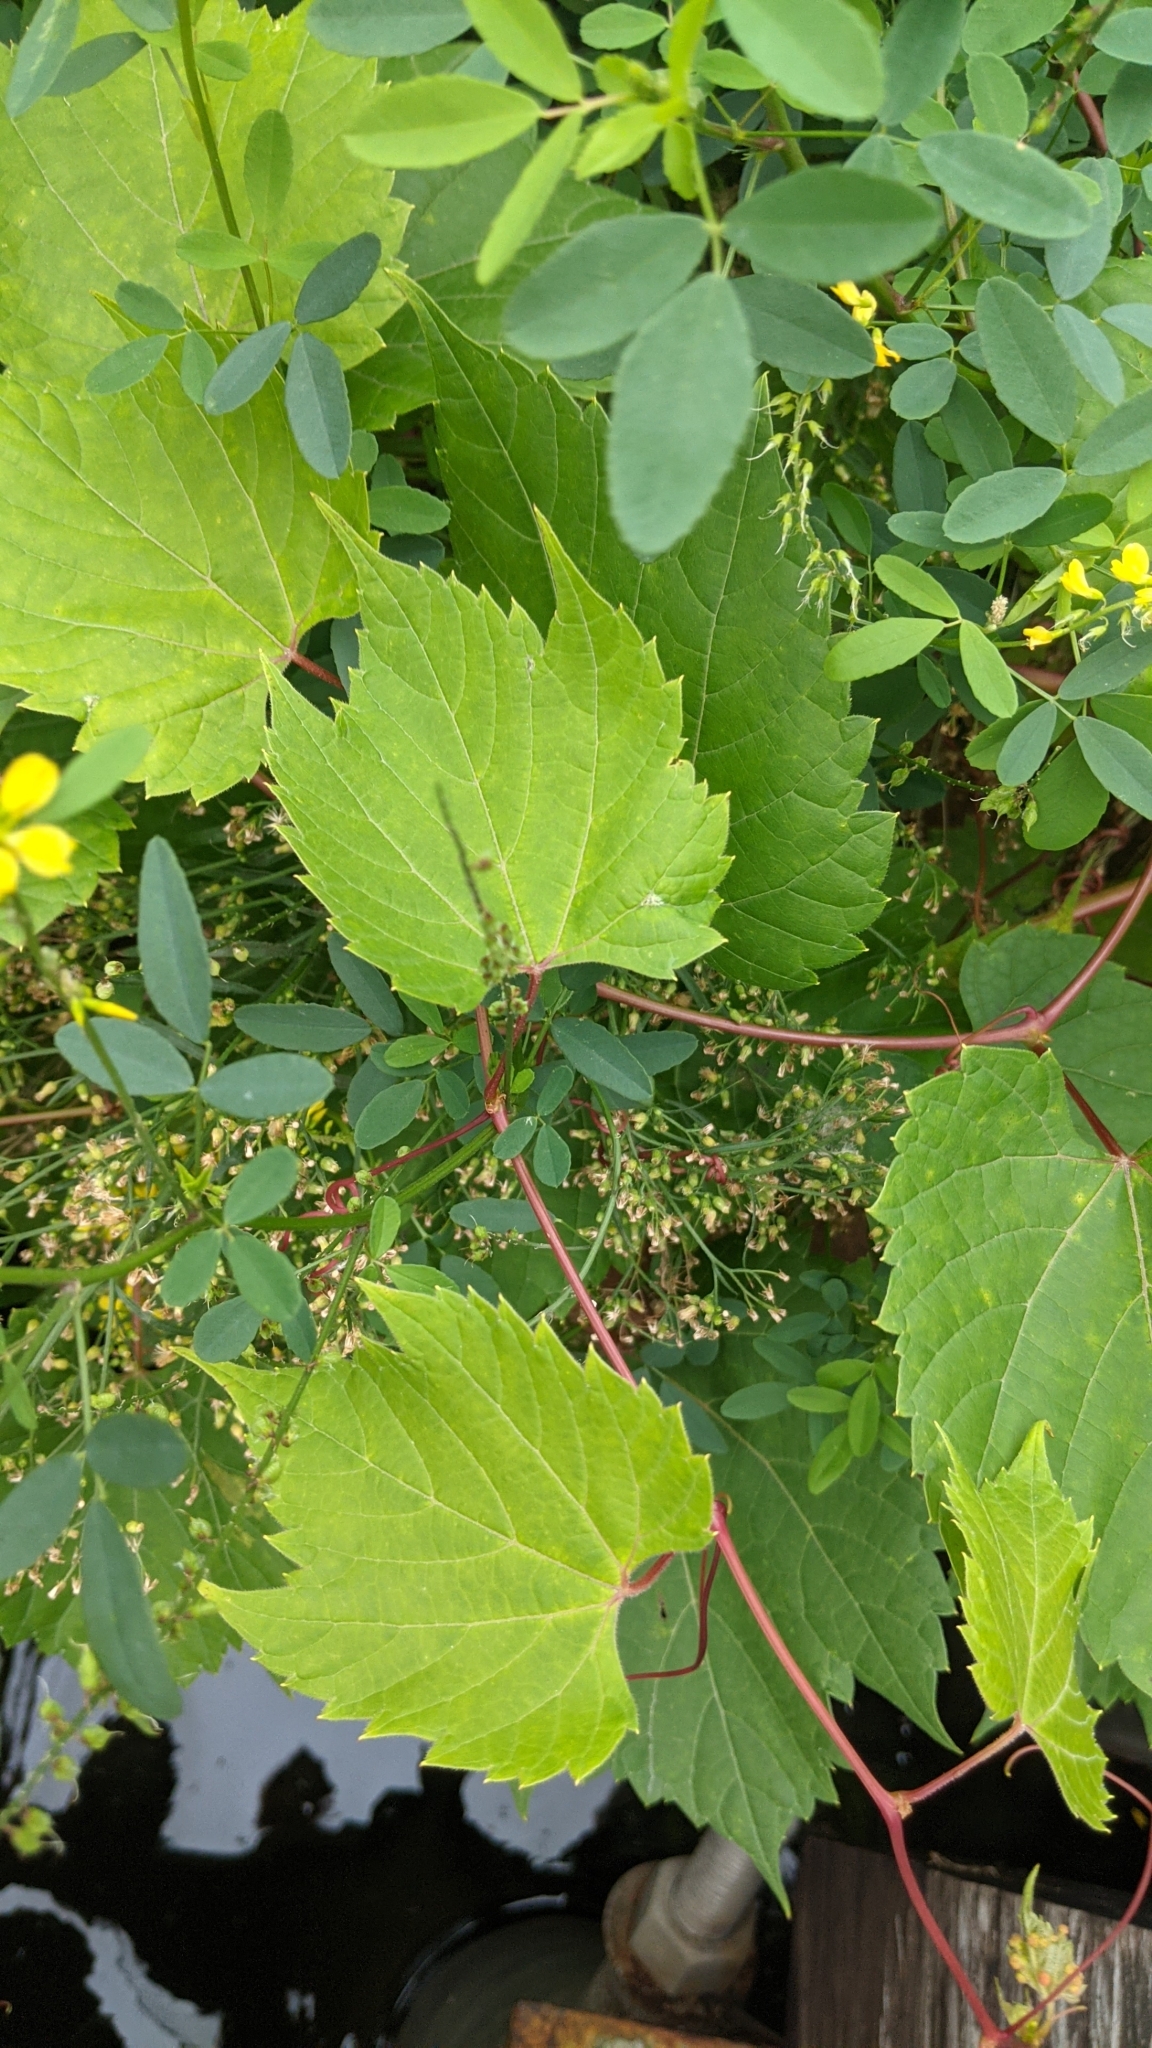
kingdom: Plantae
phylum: Tracheophyta
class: Magnoliopsida
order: Vitales
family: Vitaceae
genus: Vitis
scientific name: Vitis riparia
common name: Frost grape
